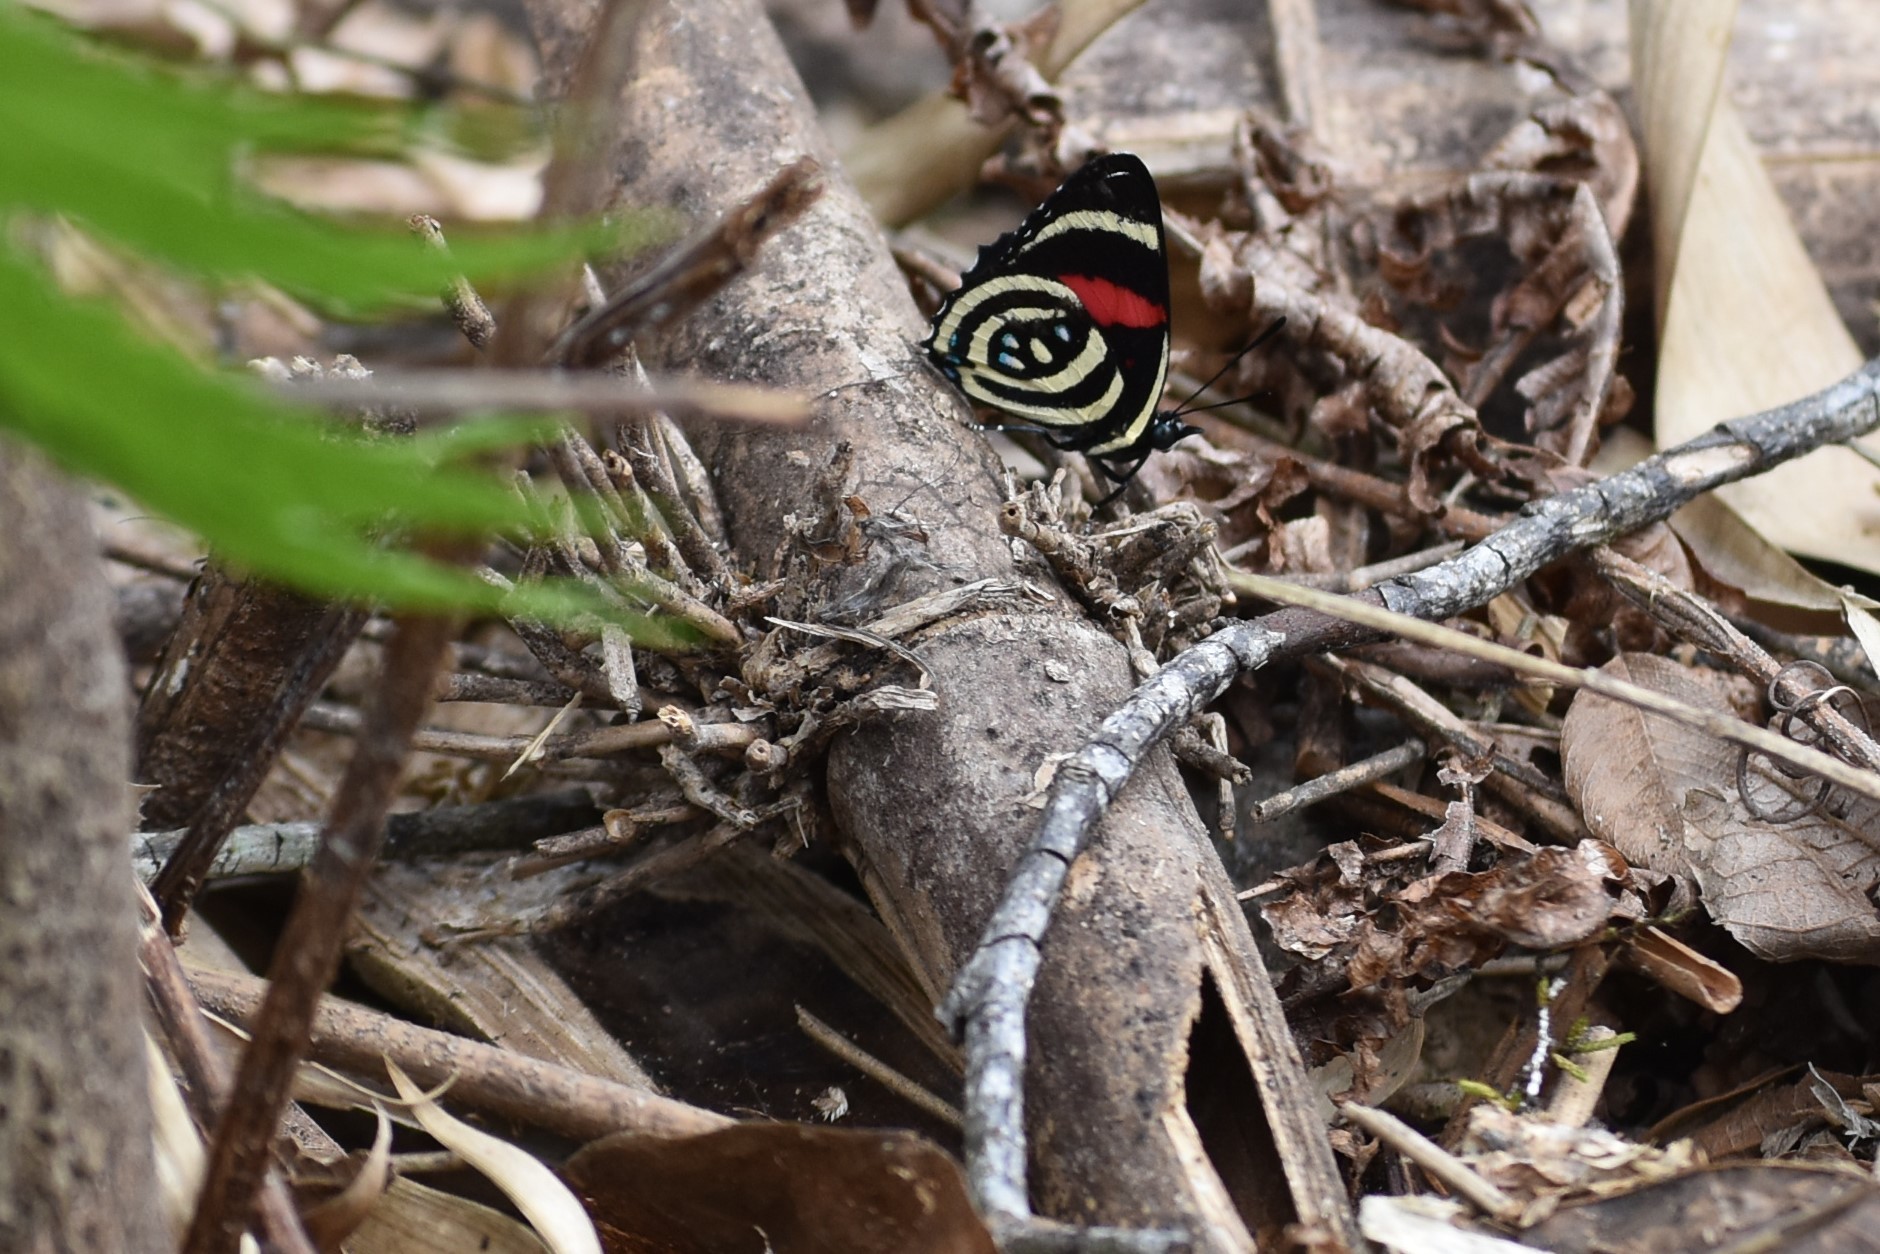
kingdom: Animalia
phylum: Arthropoda
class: Insecta
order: Lepidoptera
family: Nymphalidae
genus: Catagramma
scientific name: Catagramma Callicore hydaspes
